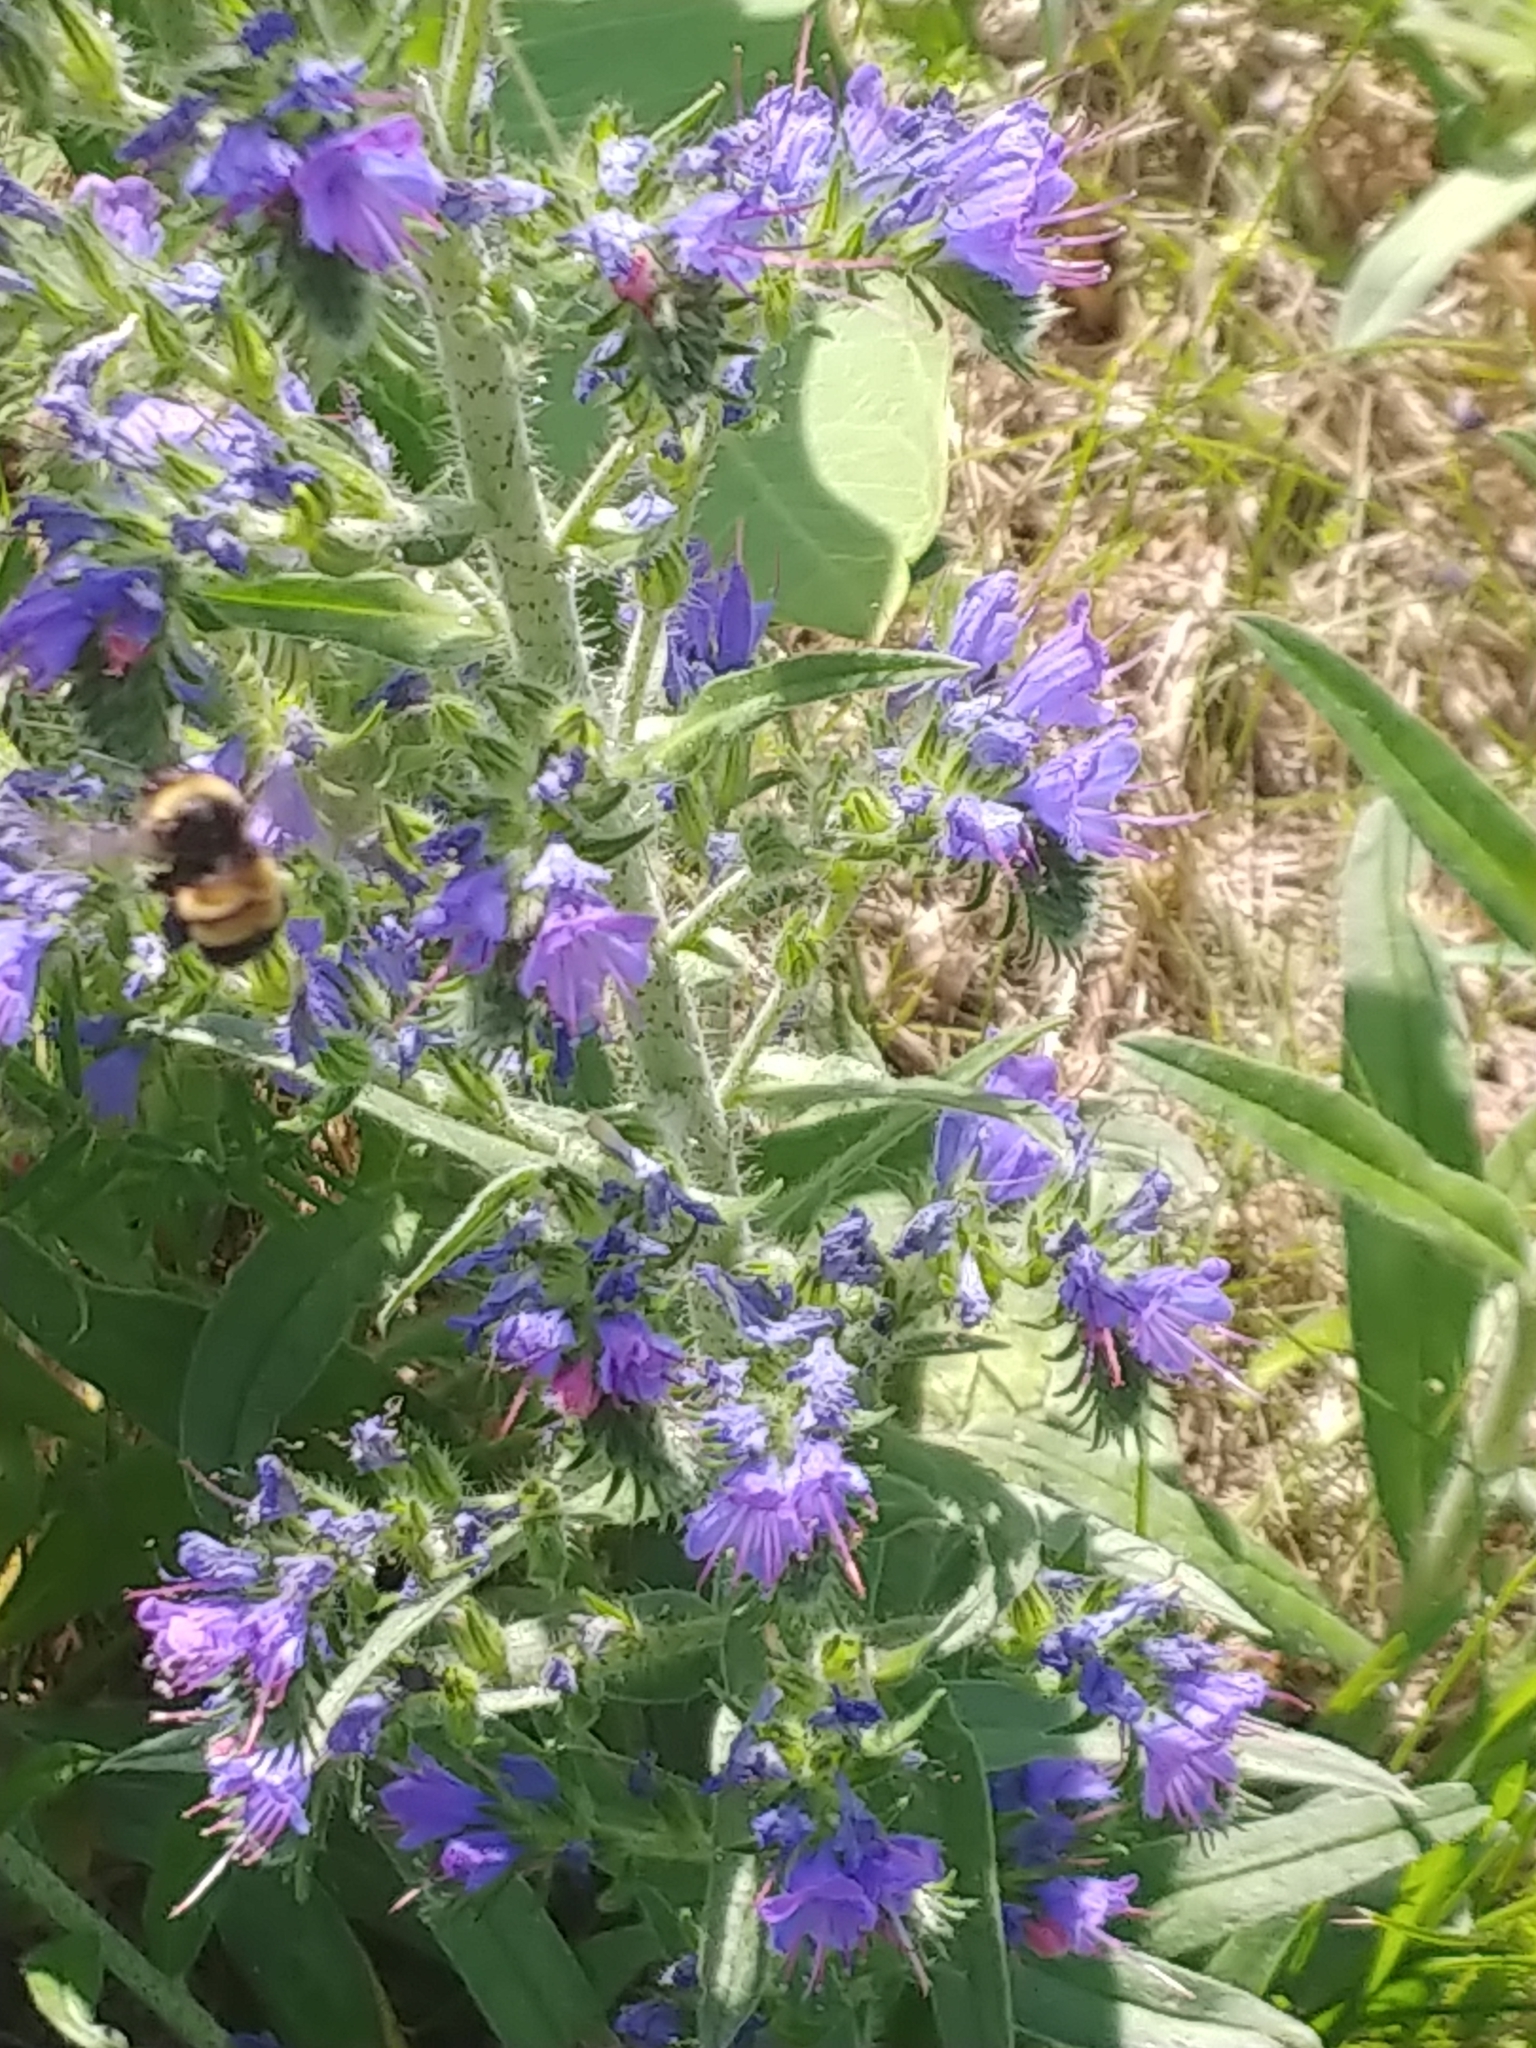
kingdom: Animalia
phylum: Arthropoda
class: Insecta
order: Hymenoptera
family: Apidae
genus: Bombus
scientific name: Bombus terricola
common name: Yellow-banded bumble bee
